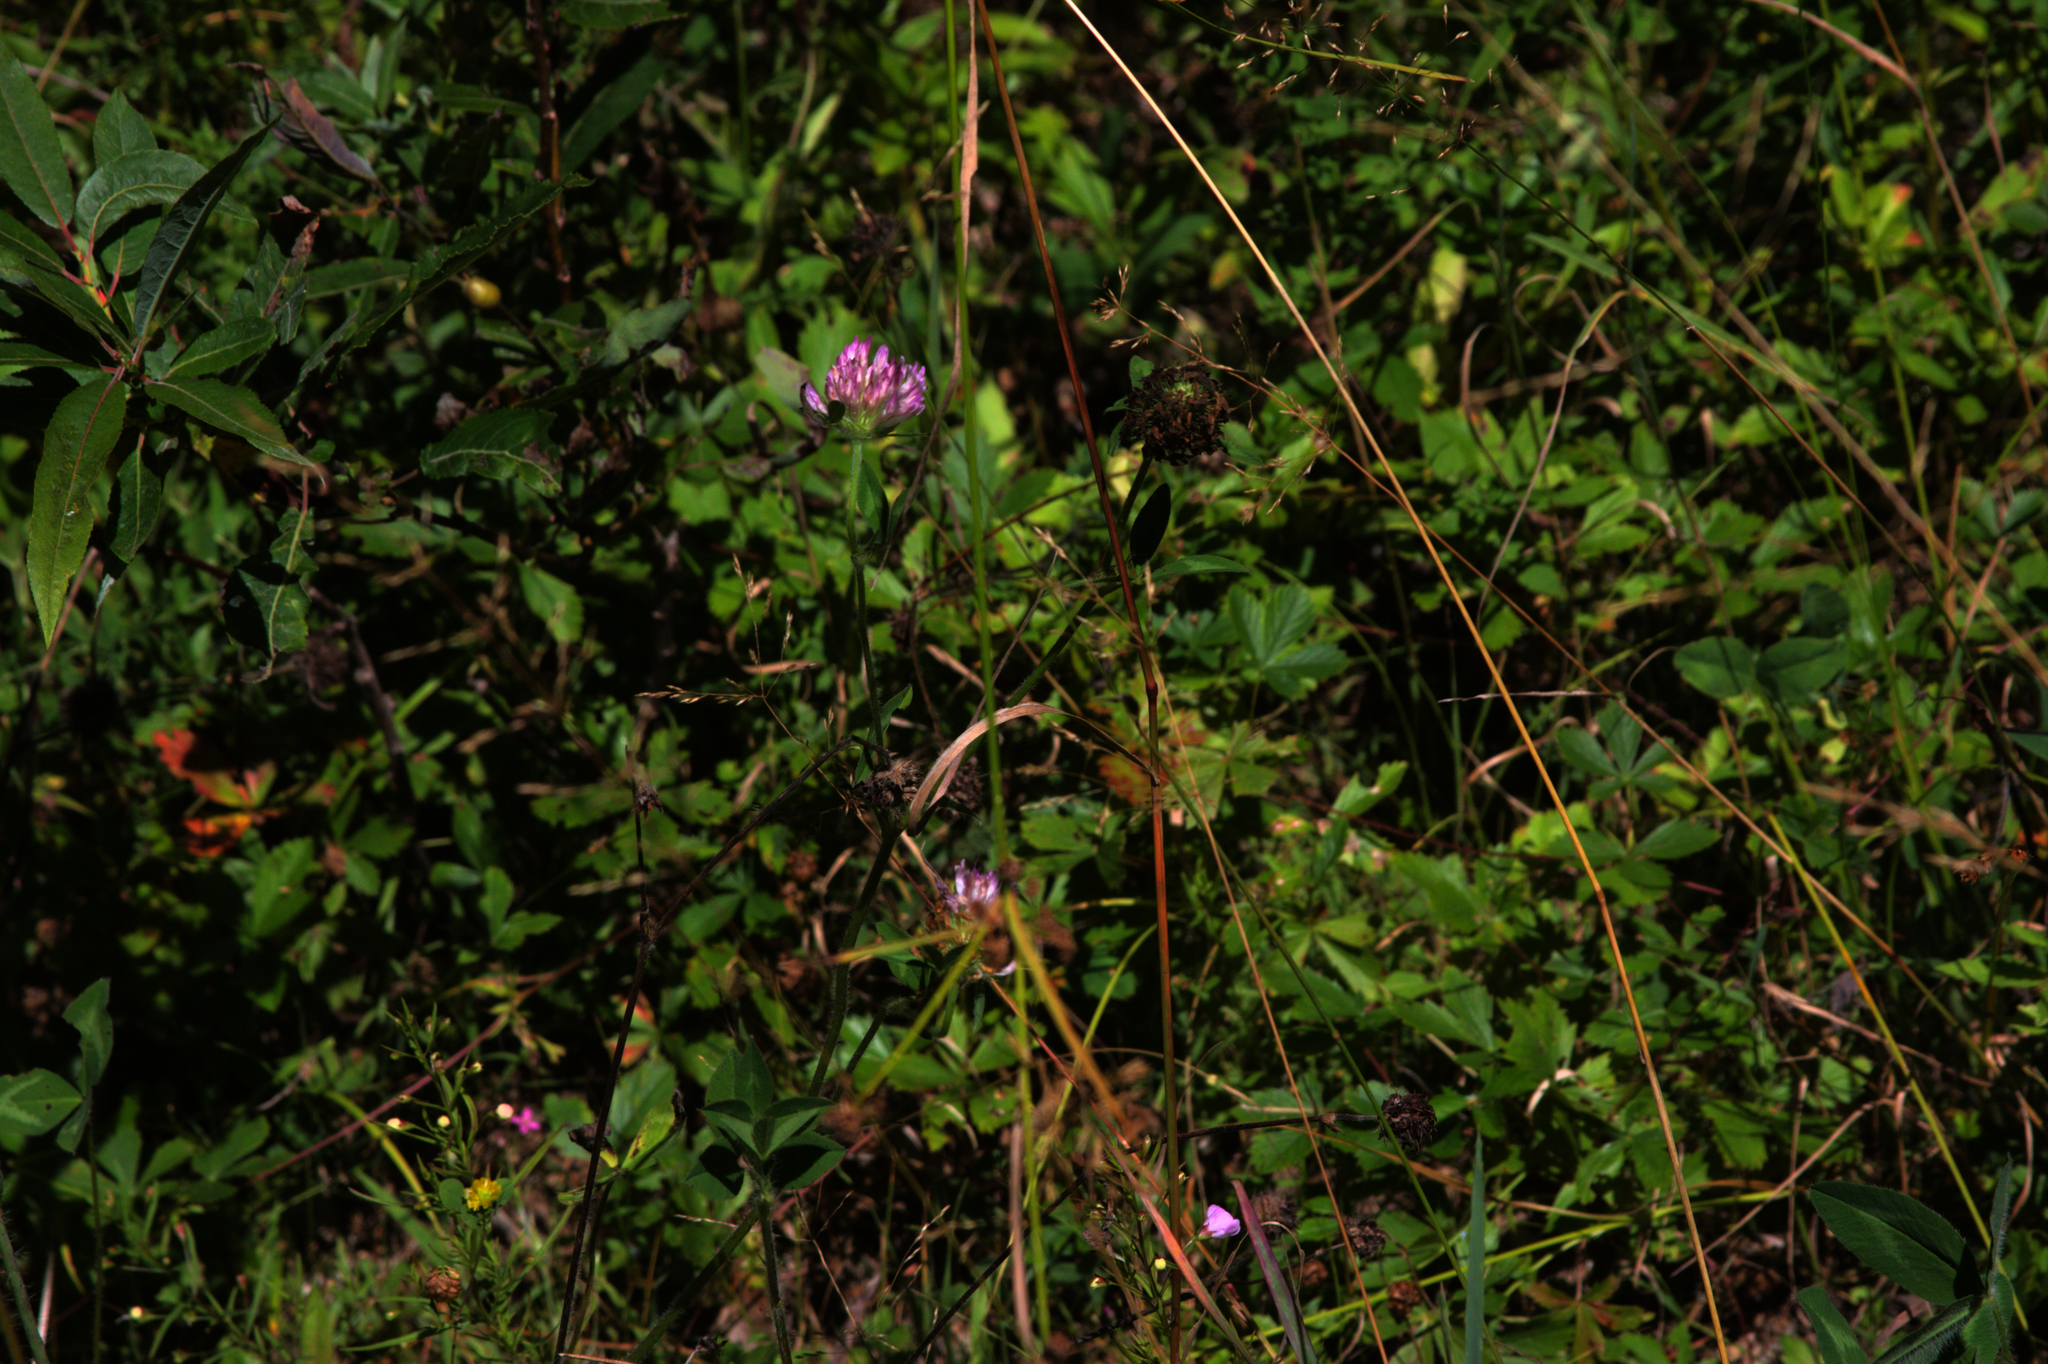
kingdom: Plantae
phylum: Tracheophyta
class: Magnoliopsida
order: Fabales
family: Fabaceae
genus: Trifolium
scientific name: Trifolium pratense
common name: Red clover
